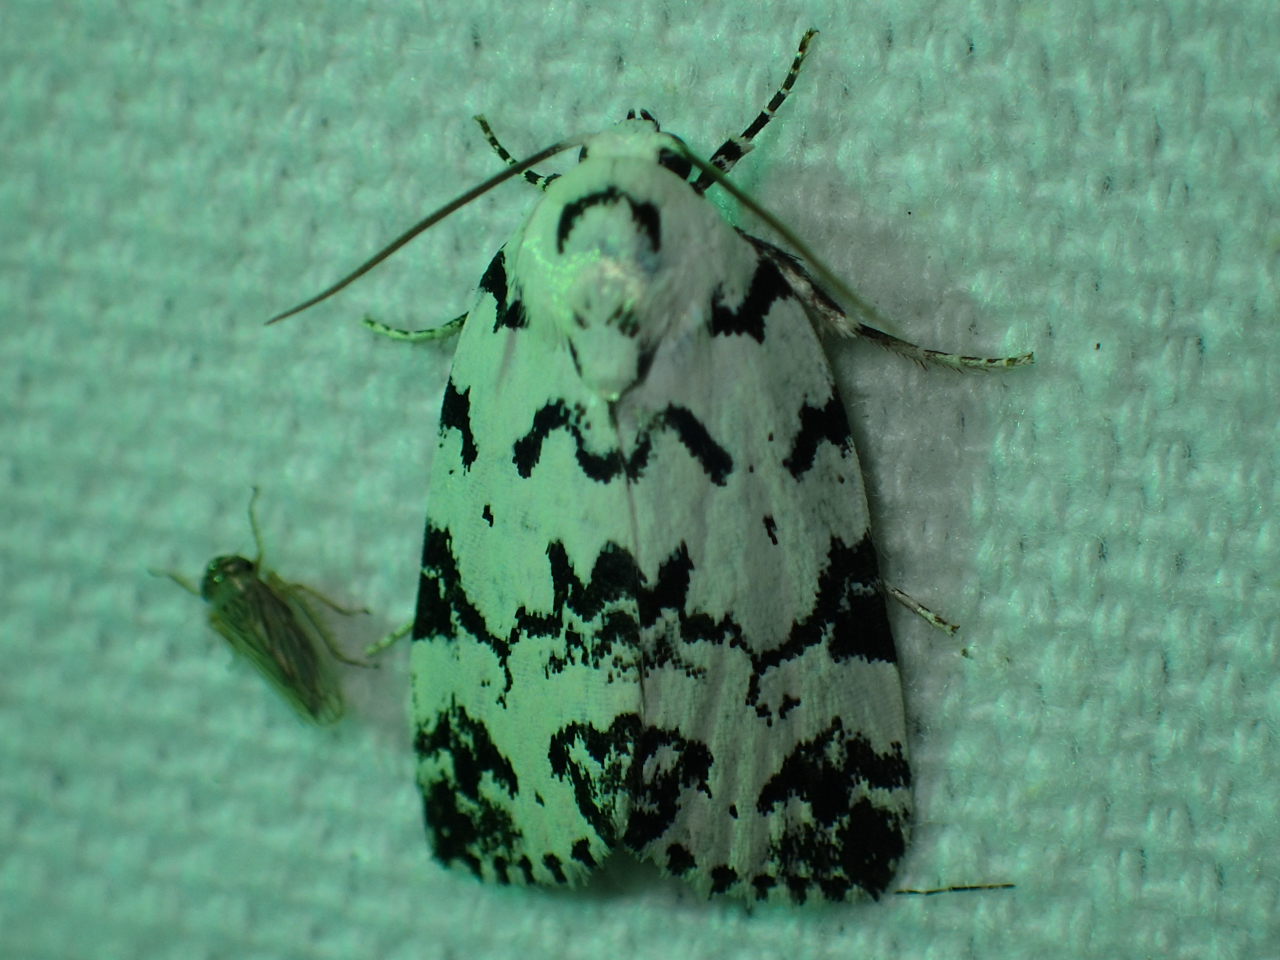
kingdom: Animalia
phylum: Arthropoda
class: Insecta
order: Lepidoptera
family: Noctuidae
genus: Polygrammate
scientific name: Polygrammate hebraeicum
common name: Hebrew moth
